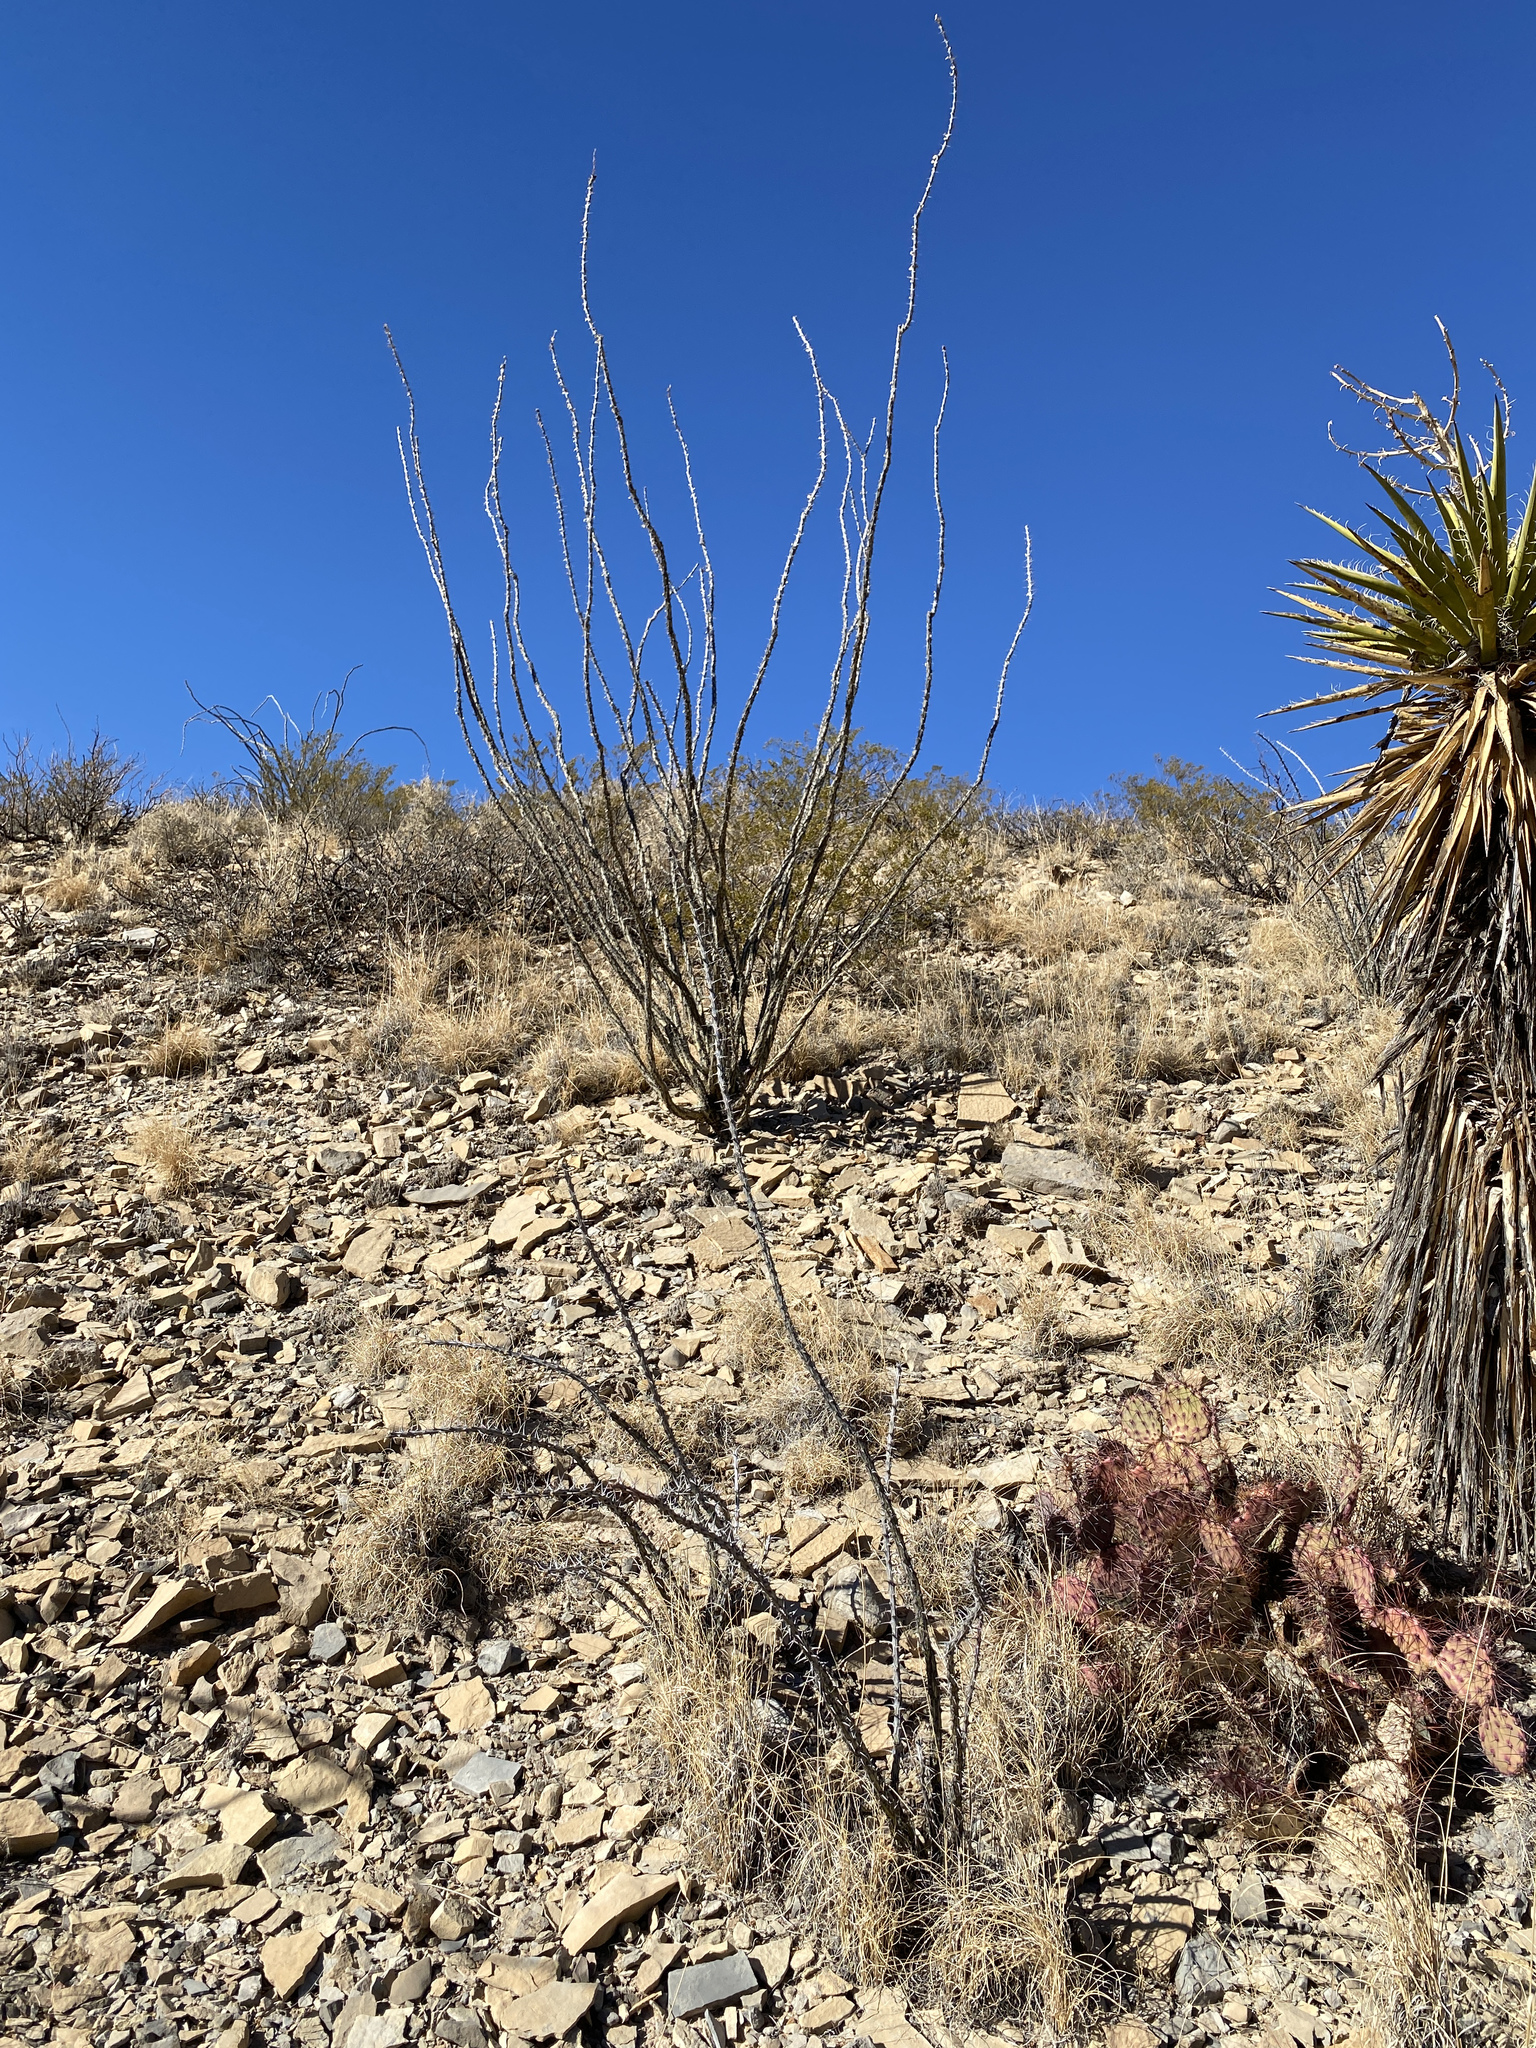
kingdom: Plantae
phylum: Tracheophyta
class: Magnoliopsida
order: Ericales
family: Fouquieriaceae
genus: Fouquieria
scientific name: Fouquieria splendens
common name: Vine-cactus
